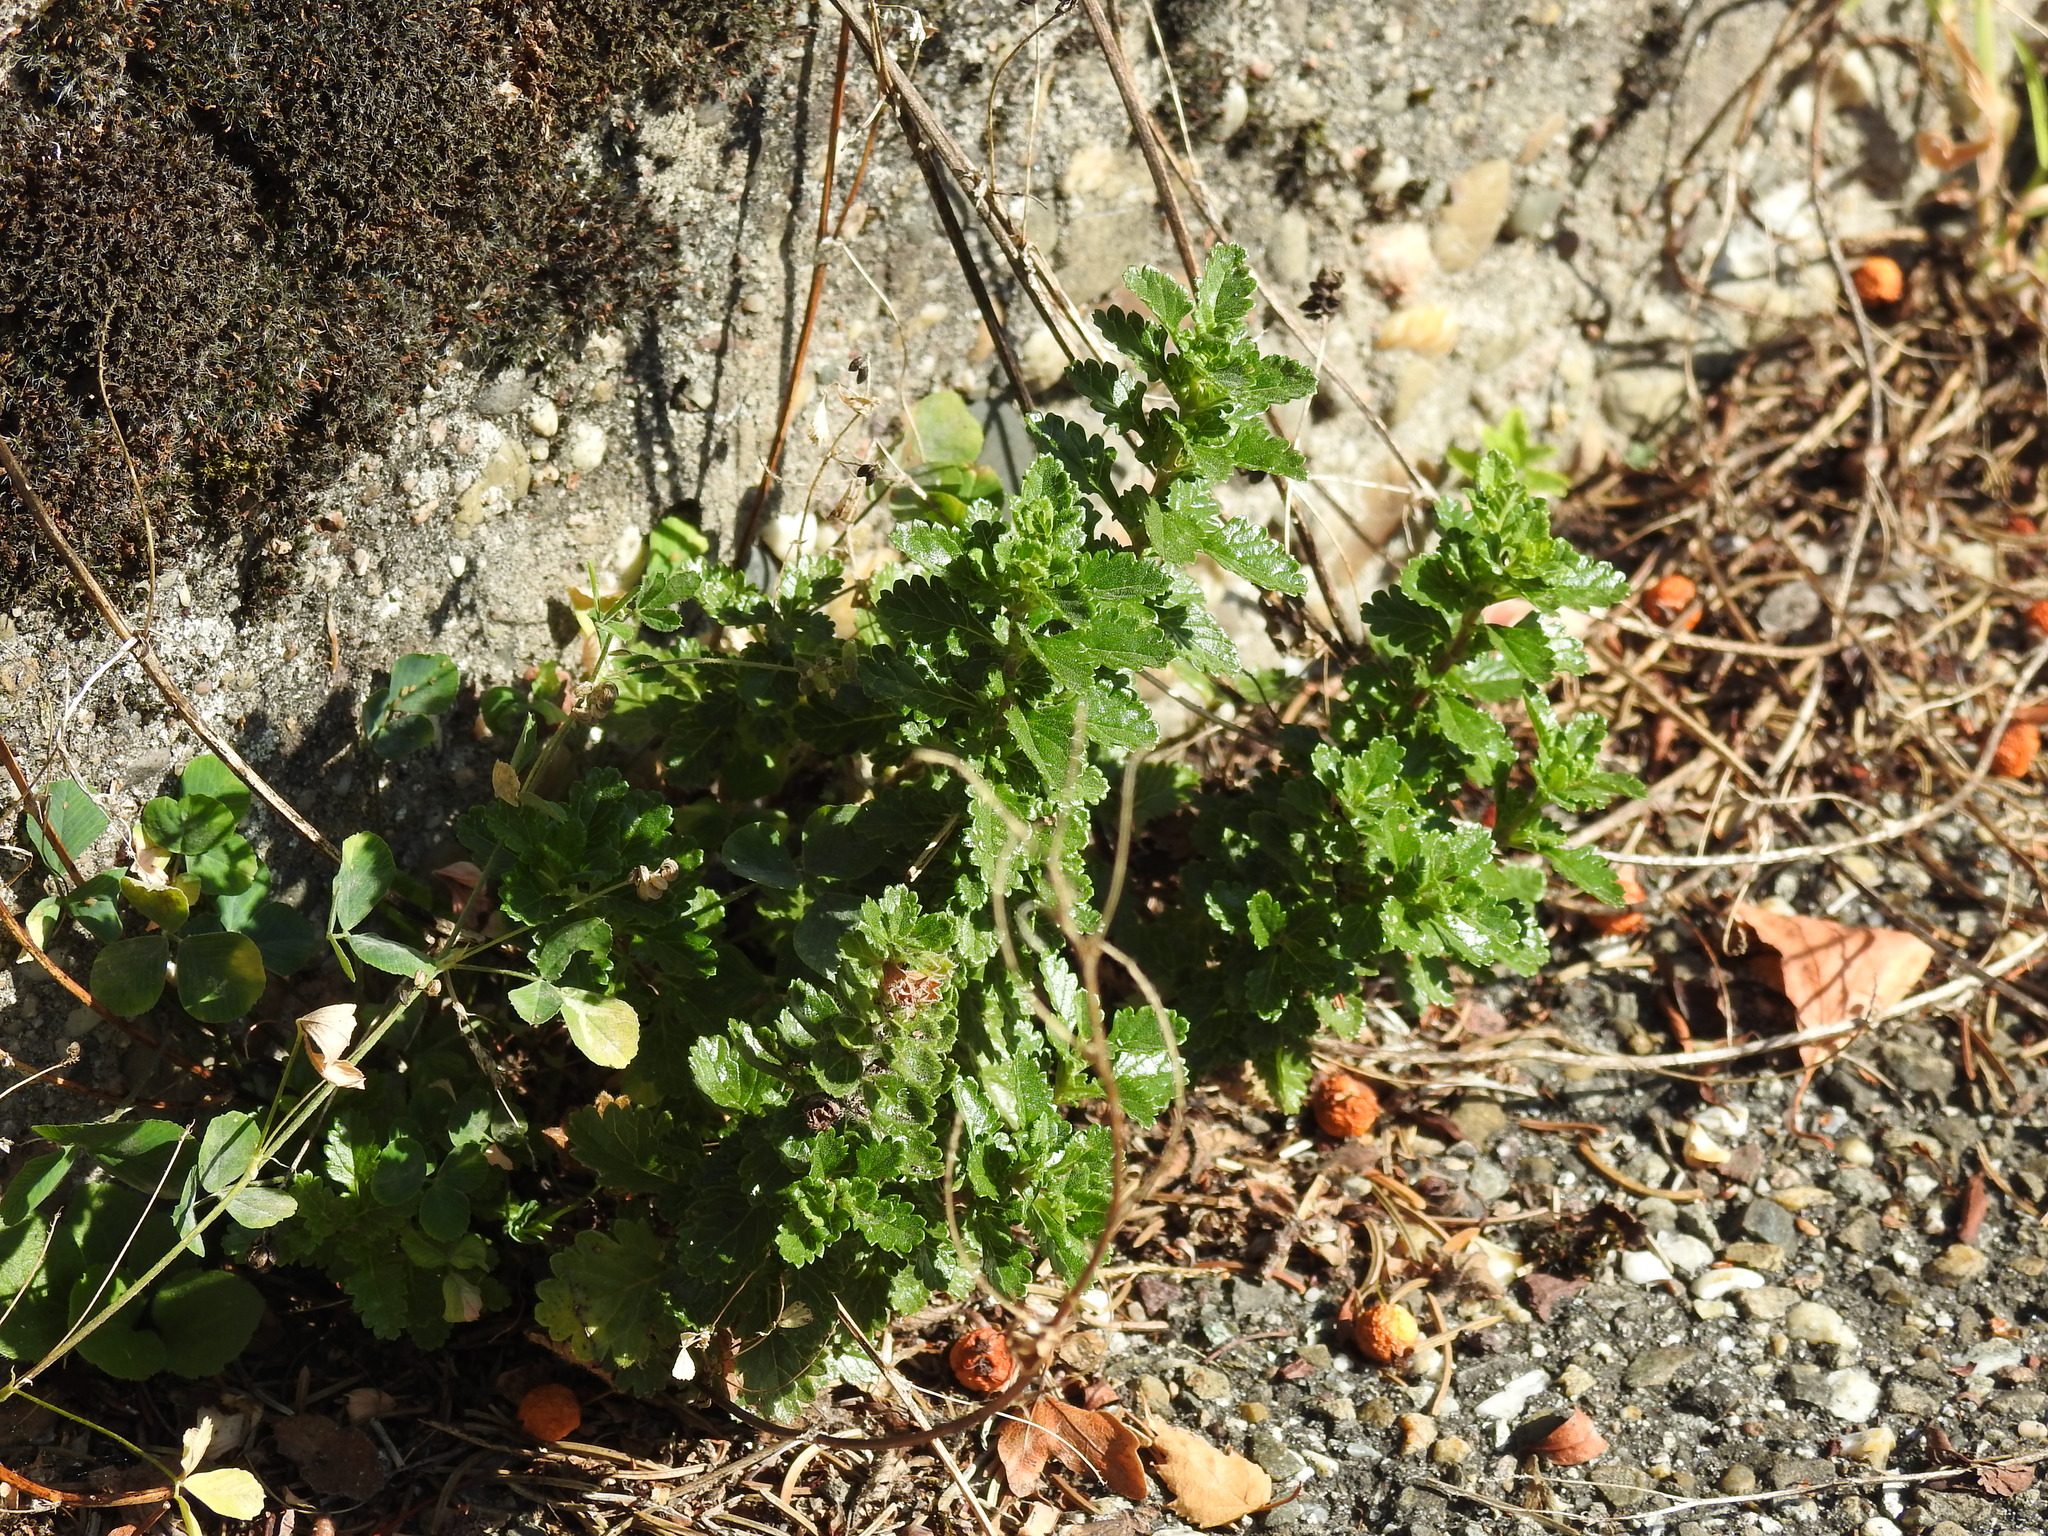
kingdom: Plantae
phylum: Tracheophyta
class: Magnoliopsida
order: Lamiales
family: Lamiaceae
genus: Teucrium
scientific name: Teucrium chamaedrys
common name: Wall germander
